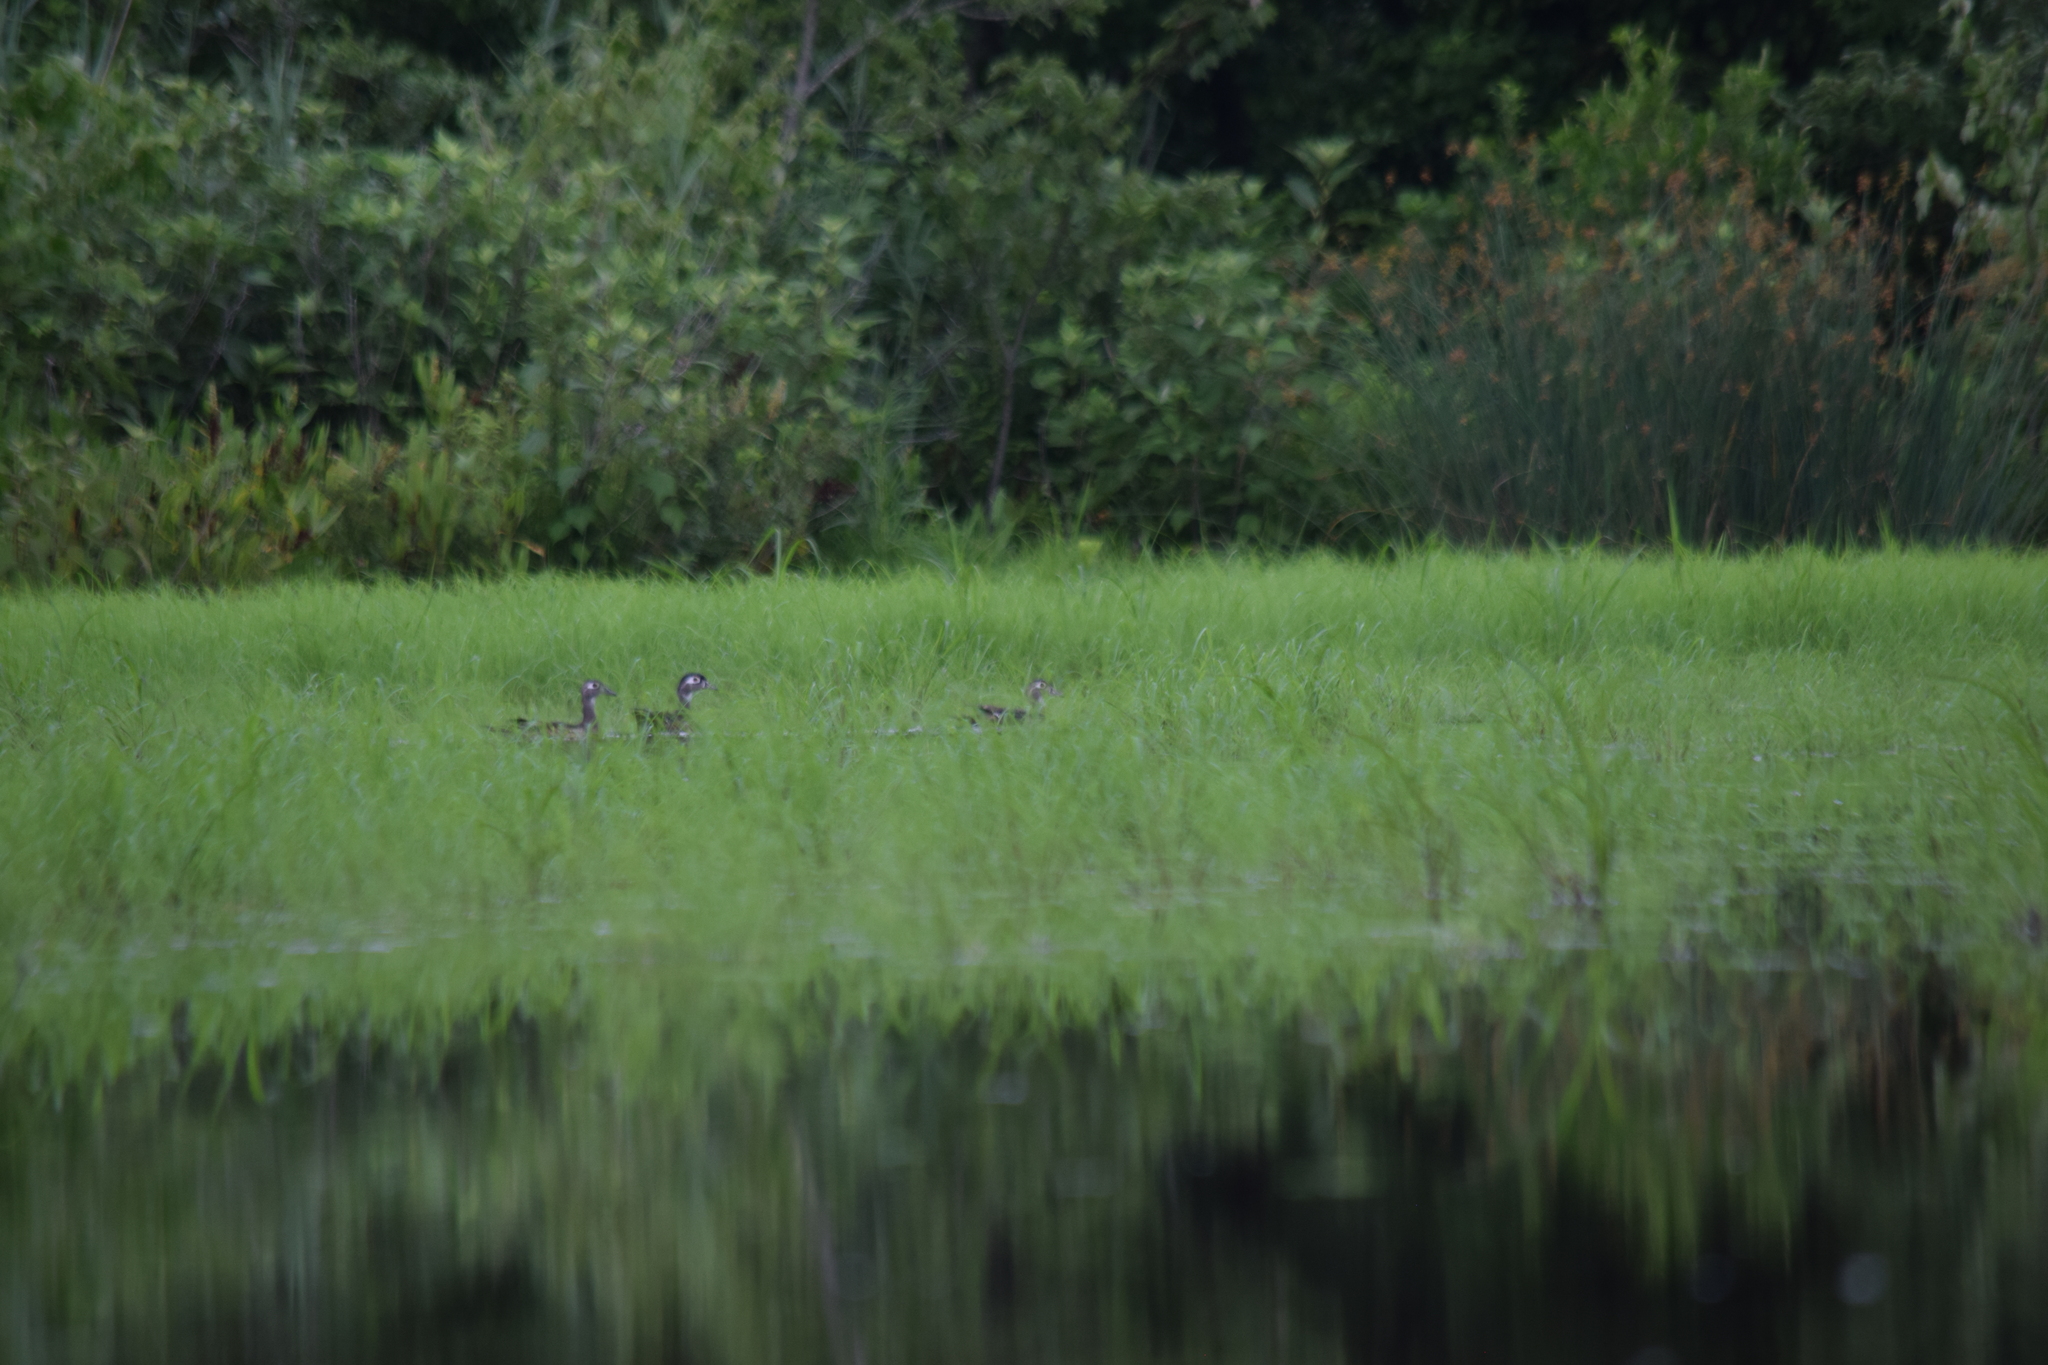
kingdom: Animalia
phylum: Chordata
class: Aves
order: Anseriformes
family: Anatidae
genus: Aix
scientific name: Aix sponsa
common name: Wood duck
